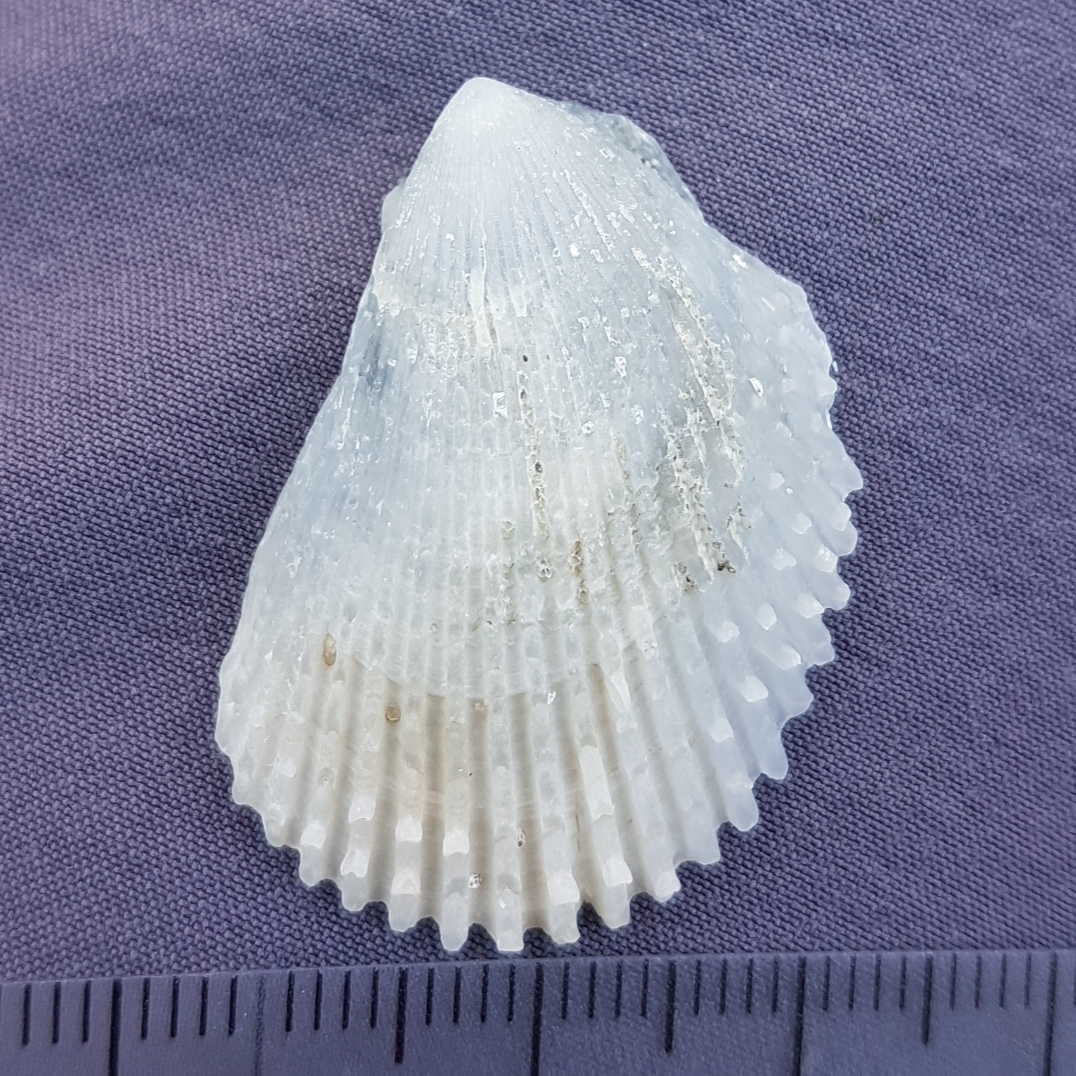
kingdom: Animalia
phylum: Mollusca
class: Bivalvia
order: Limida
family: Limidae
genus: Lima
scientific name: Lima lima
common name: Frilled file shell
